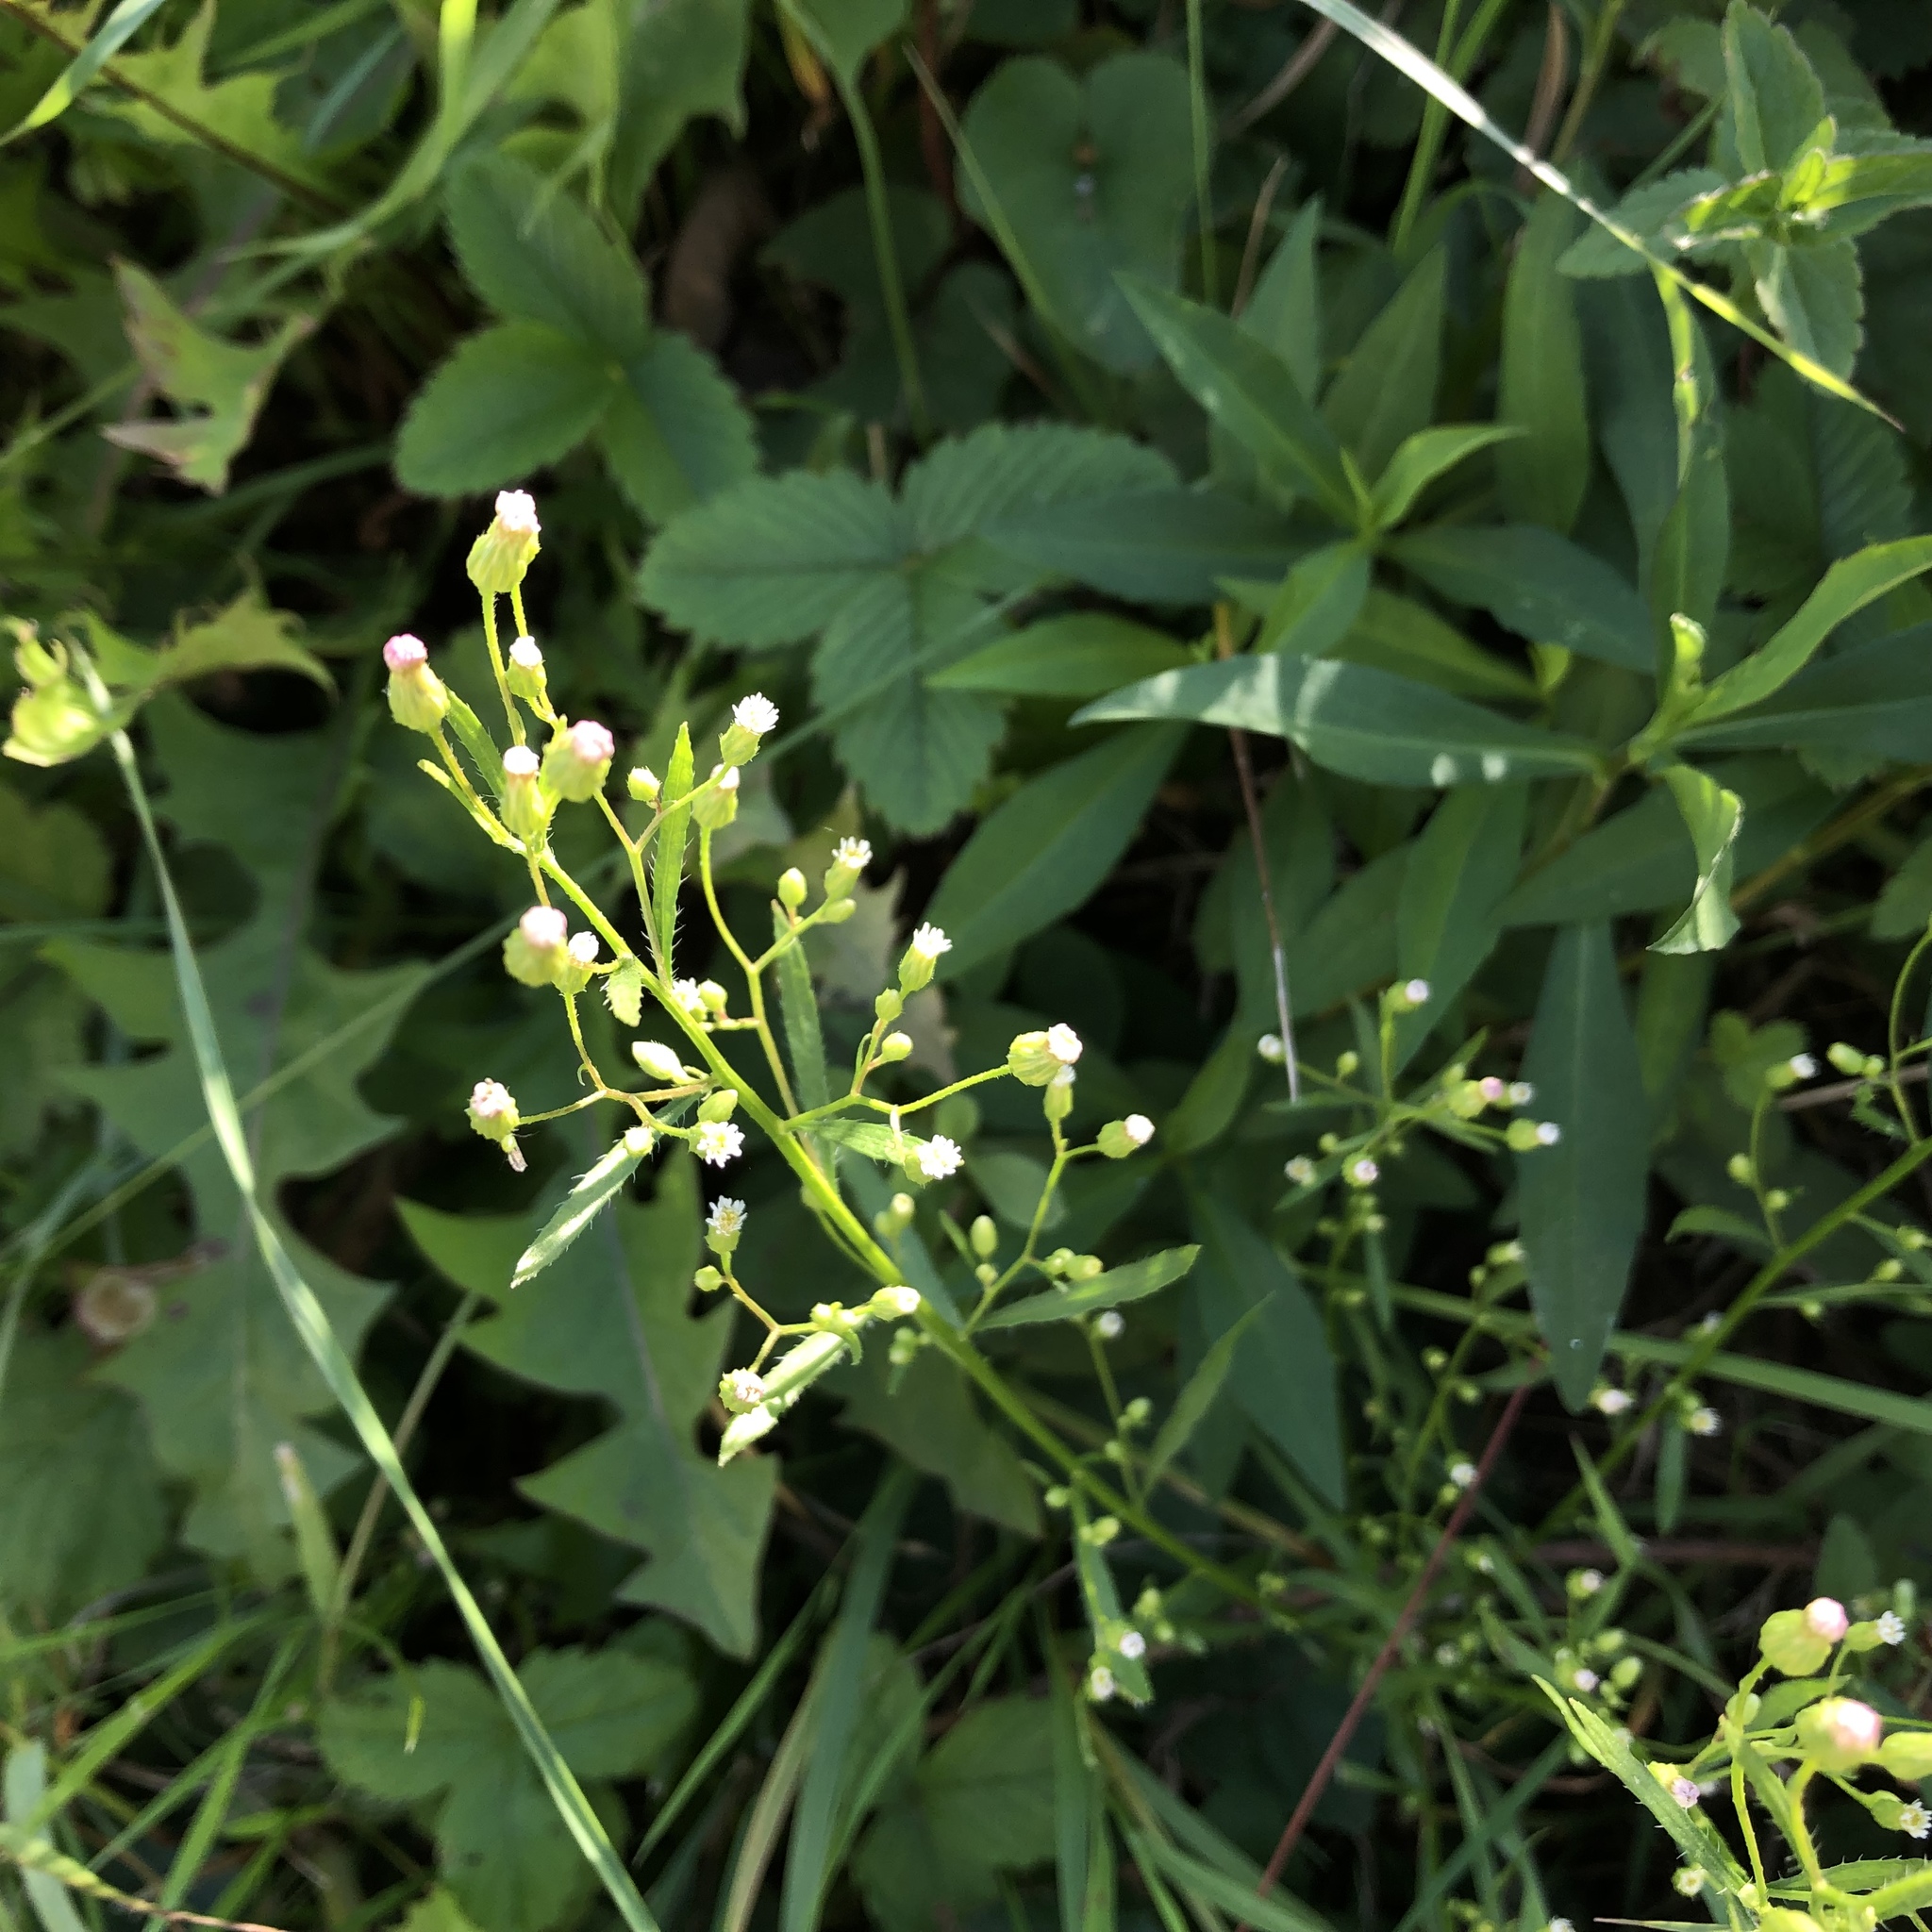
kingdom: Plantae
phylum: Tracheophyta
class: Magnoliopsida
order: Asterales
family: Asteraceae
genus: Erigeron
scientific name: Erigeron canadensis
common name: Canadian fleabane
